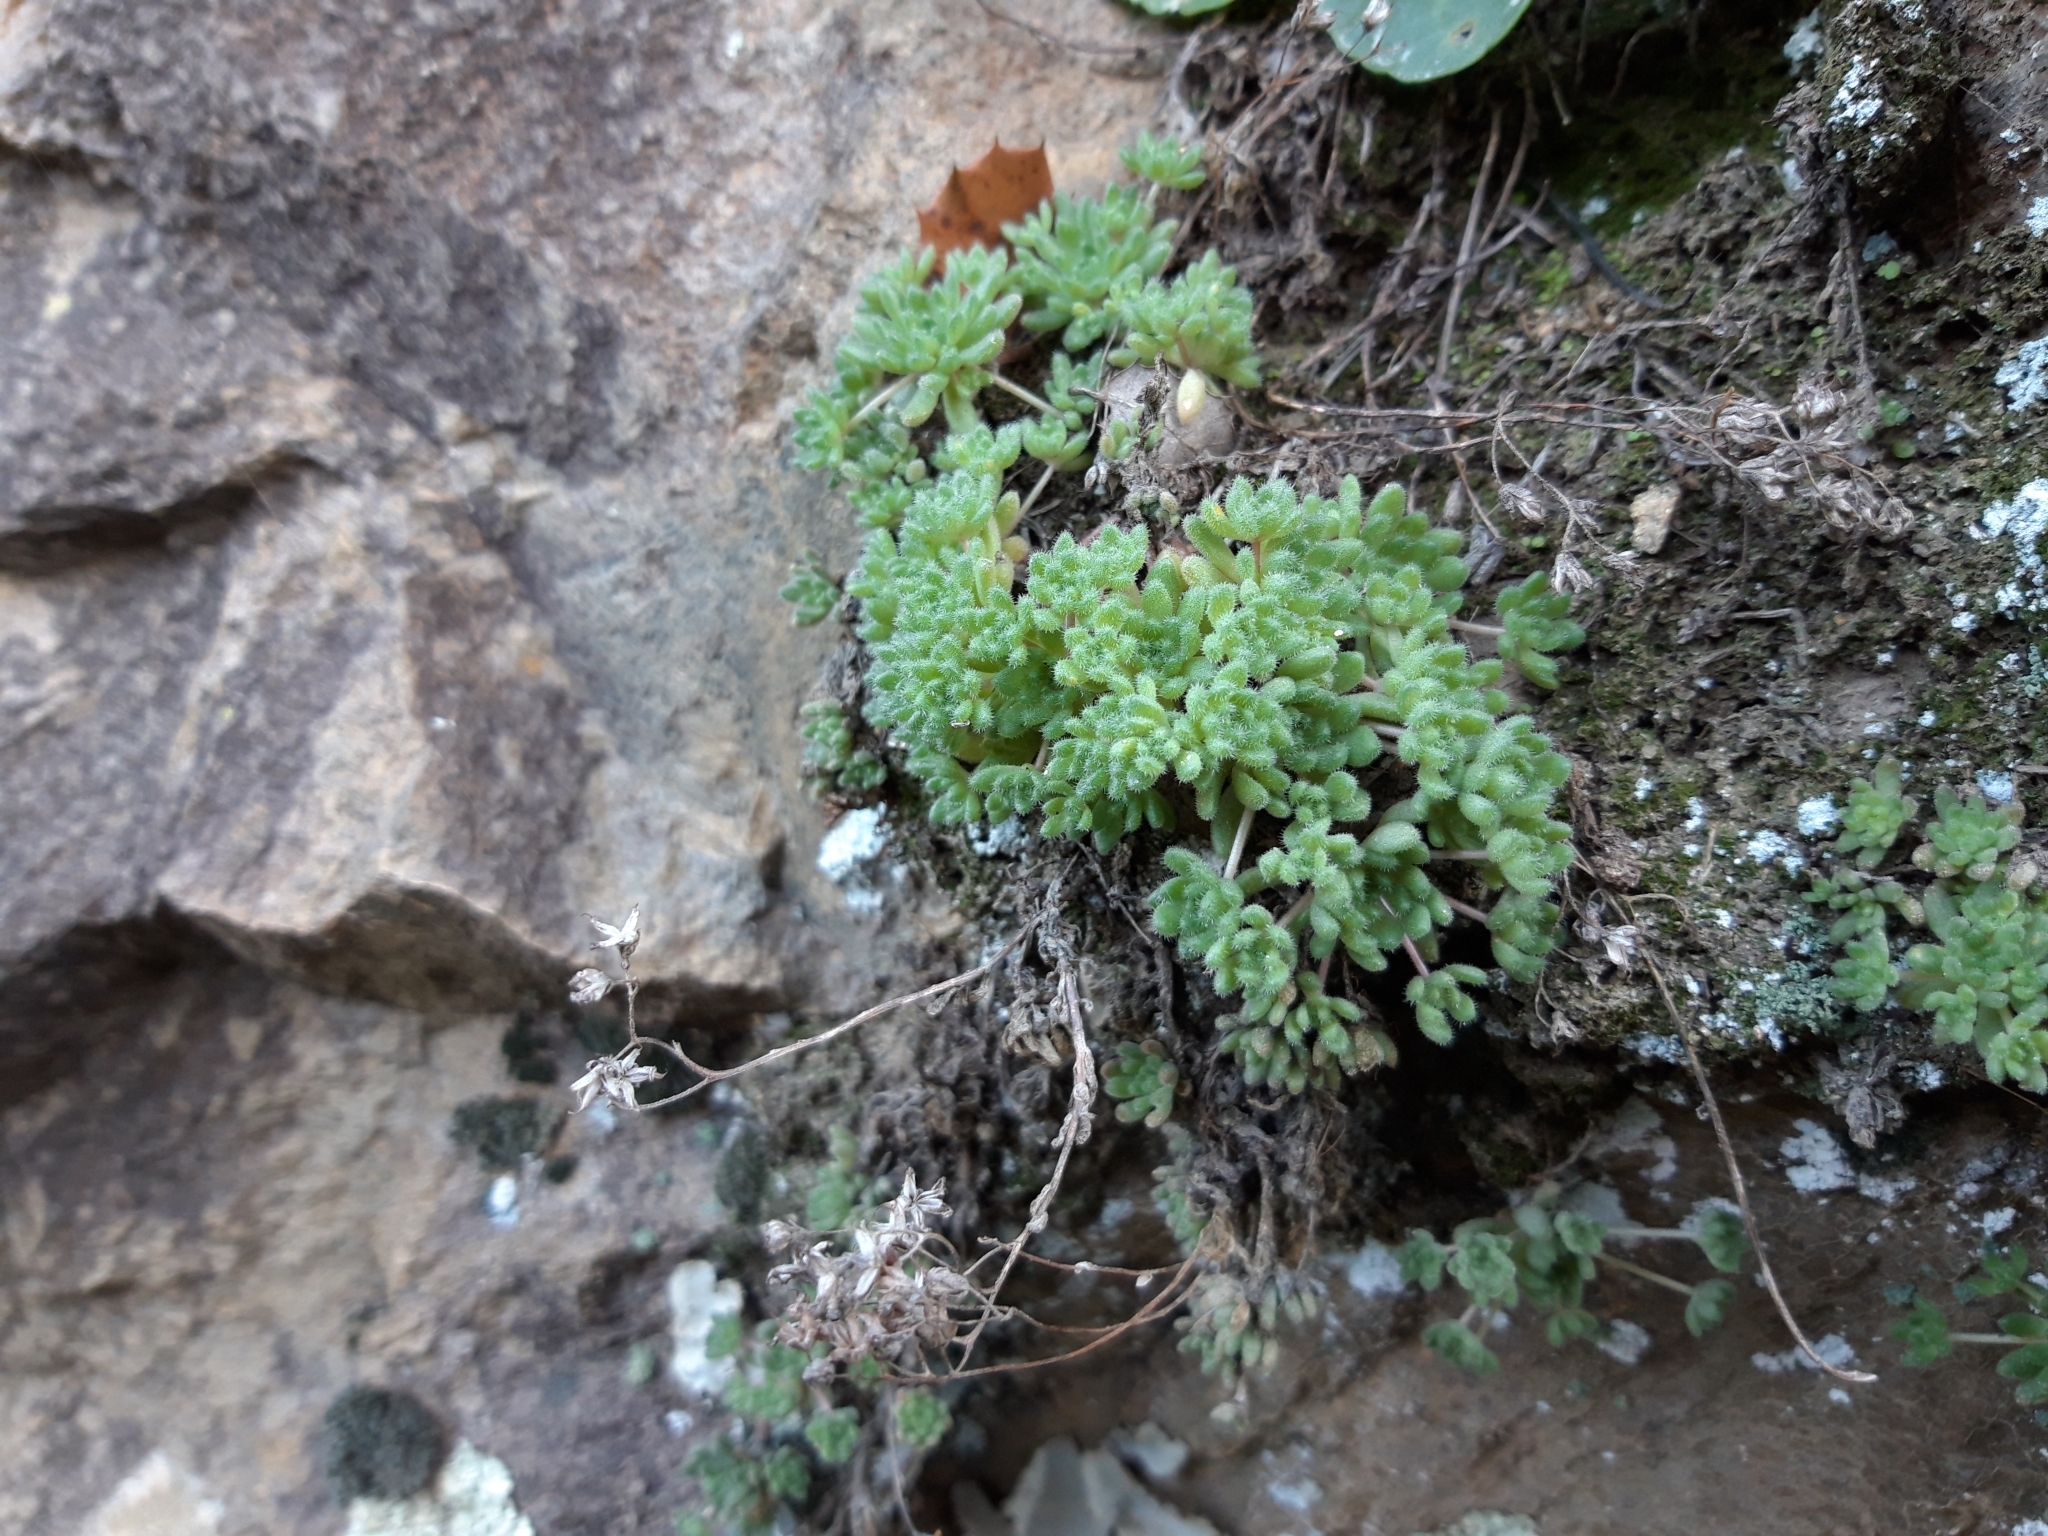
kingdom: Plantae
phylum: Tracheophyta
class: Magnoliopsida
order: Saxifragales
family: Crassulaceae
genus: Sedum
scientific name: Sedum hirsutum
